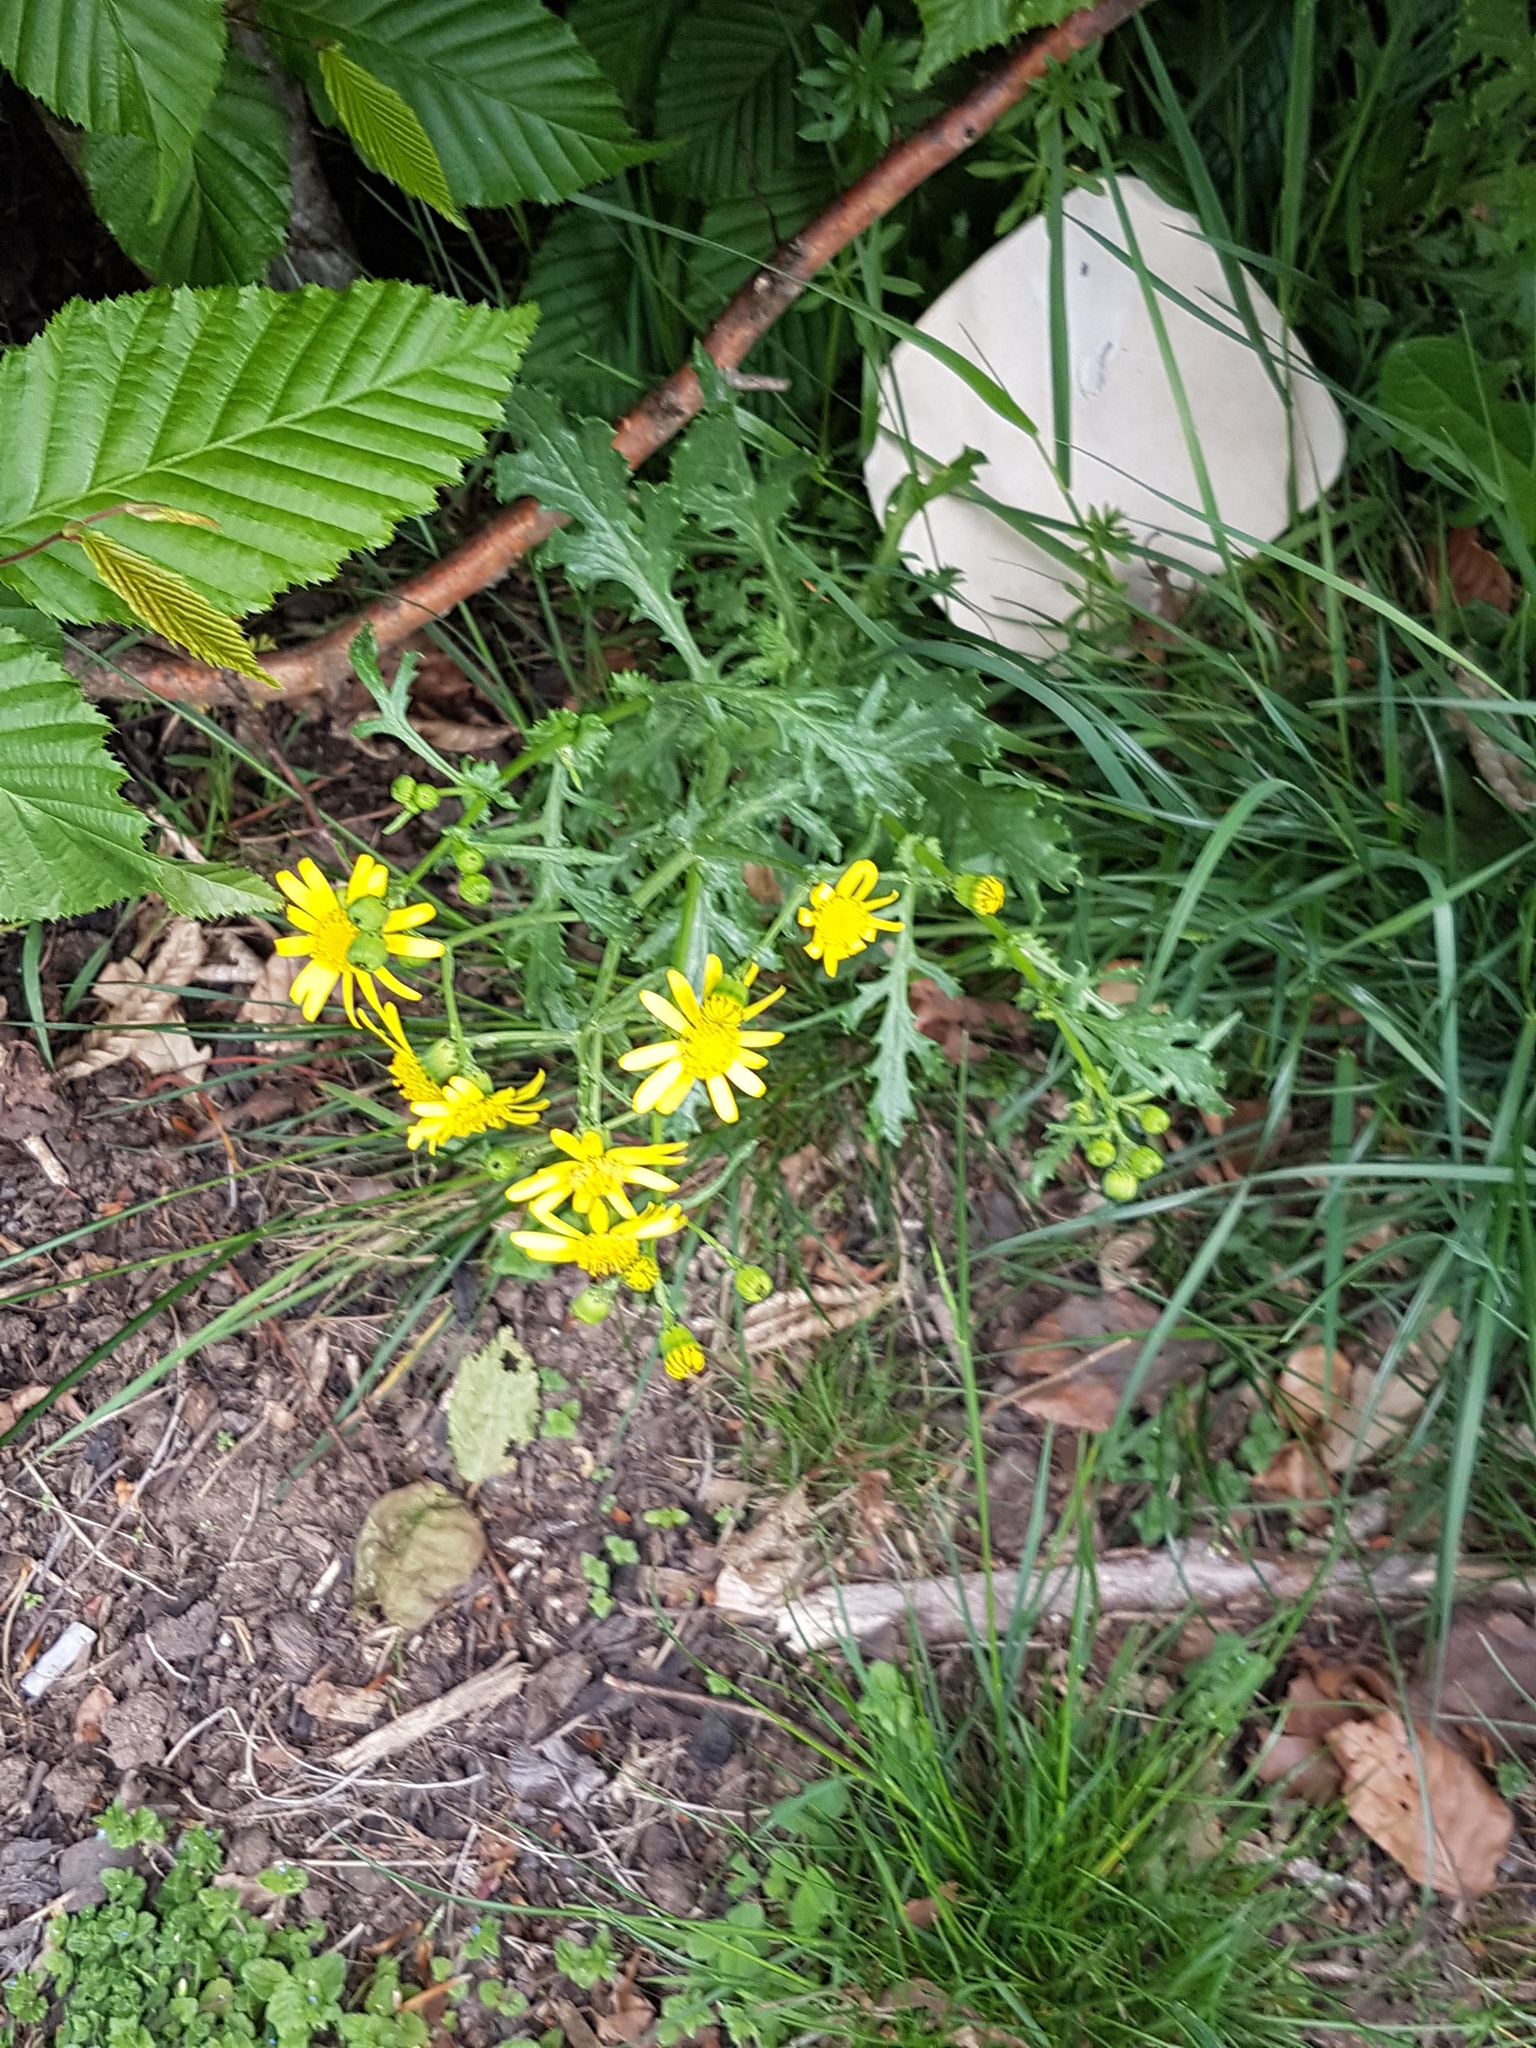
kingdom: Plantae
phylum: Tracheophyta
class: Magnoliopsida
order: Asterales
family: Asteraceae
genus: Jacobaea
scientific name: Jacobaea vulgaris
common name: Stinking willie
